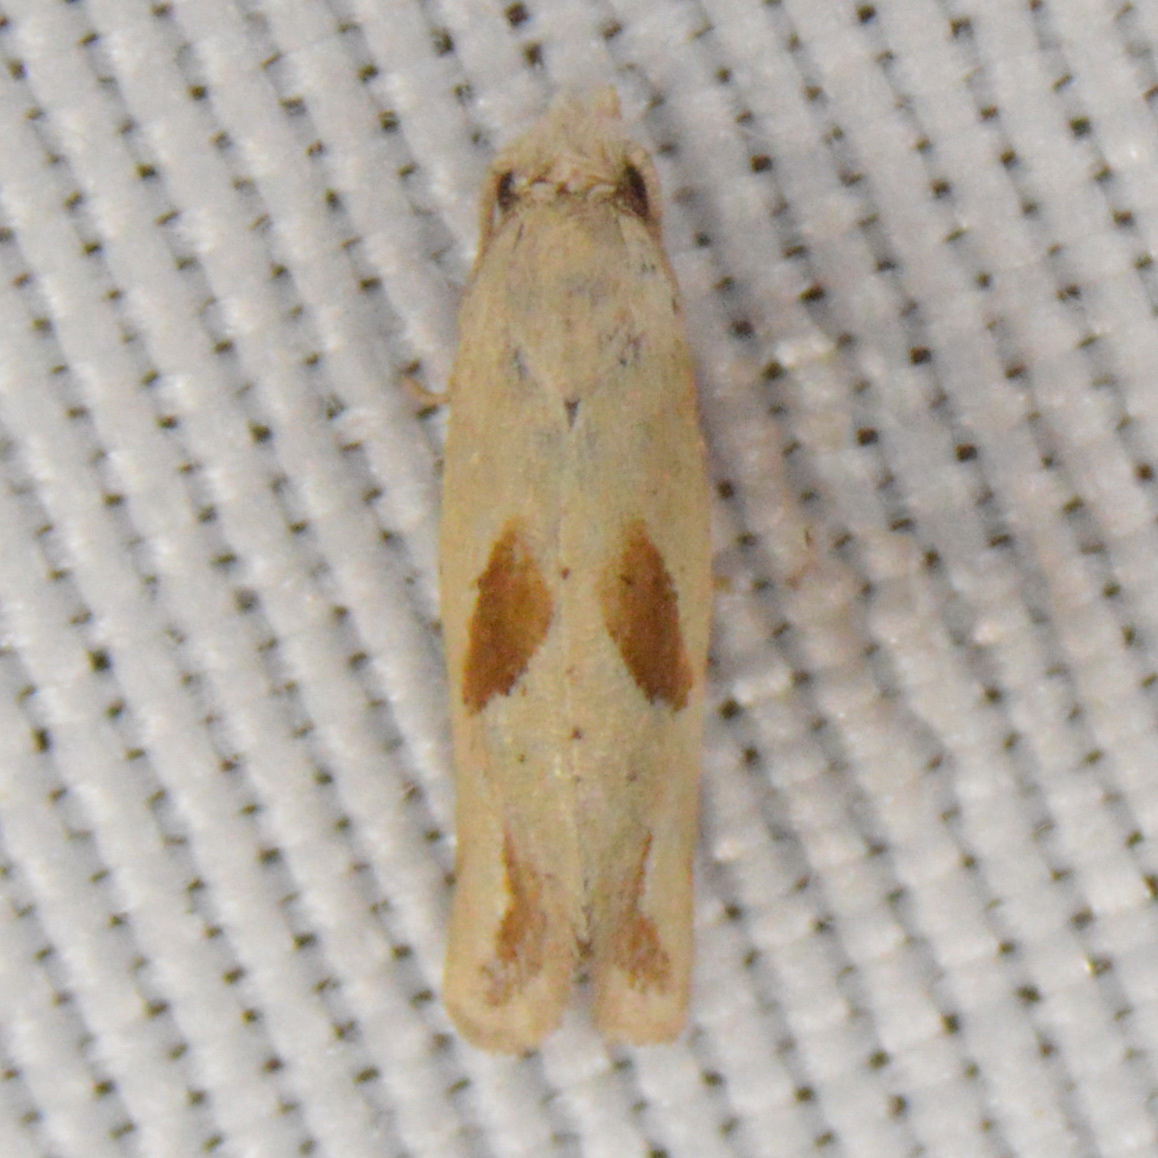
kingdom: Animalia
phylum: Arthropoda
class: Insecta
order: Lepidoptera
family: Tortricidae
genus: Eugnosta
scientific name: Eugnosta bimaculana
